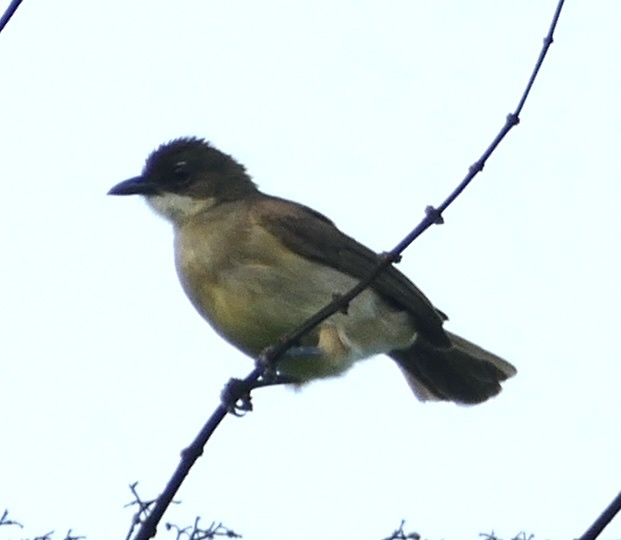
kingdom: Animalia
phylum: Chordata
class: Aves
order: Passeriformes
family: Pycnonotidae
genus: Chlorocichla
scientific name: Chlorocichla simplex
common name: Simple greenbul
